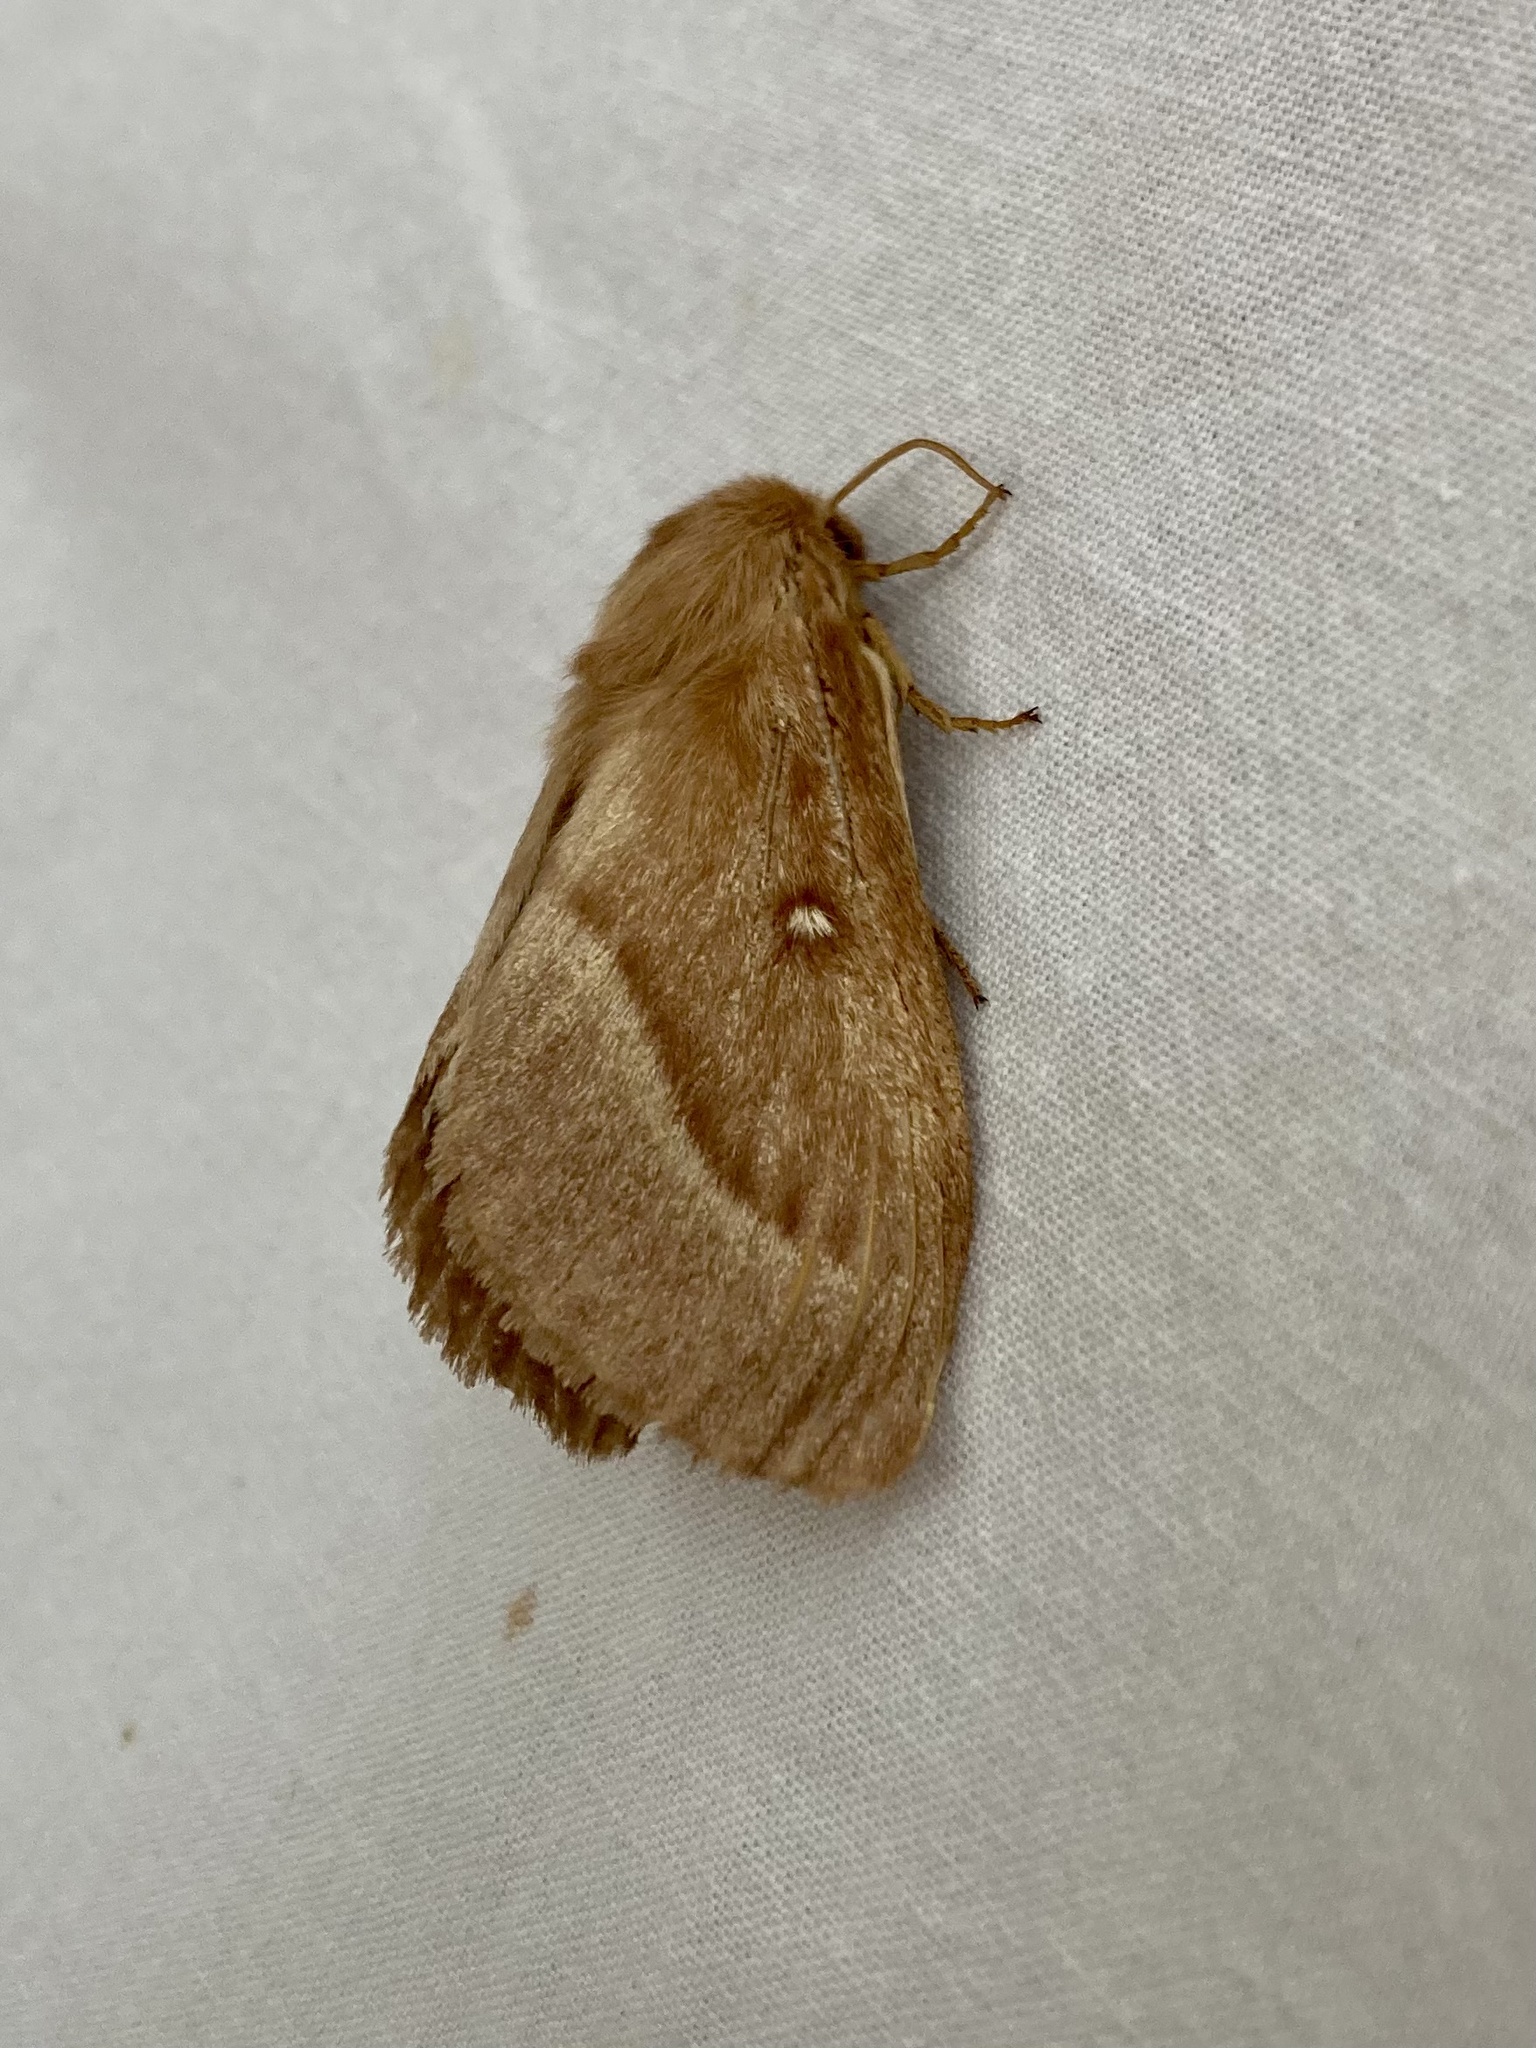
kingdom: Animalia
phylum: Arthropoda
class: Insecta
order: Lepidoptera
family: Lasiocampidae
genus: Lasiocampa
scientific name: Lasiocampa trifolii
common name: Grass eggar
